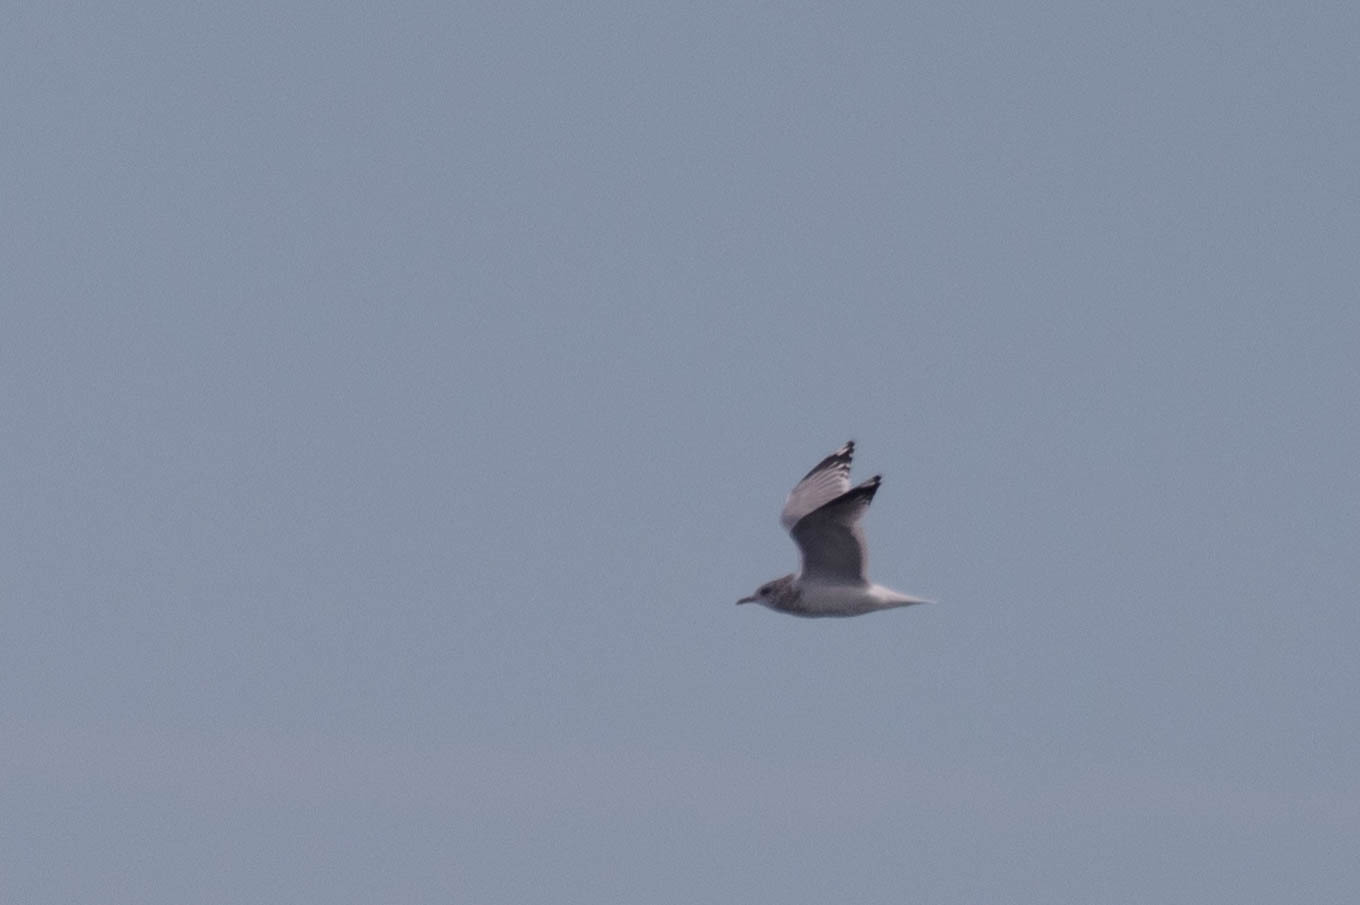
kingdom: Animalia
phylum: Chordata
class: Aves
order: Charadriiformes
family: Laridae
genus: Larus
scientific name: Larus brachyrhynchus
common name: Short-billed gull
